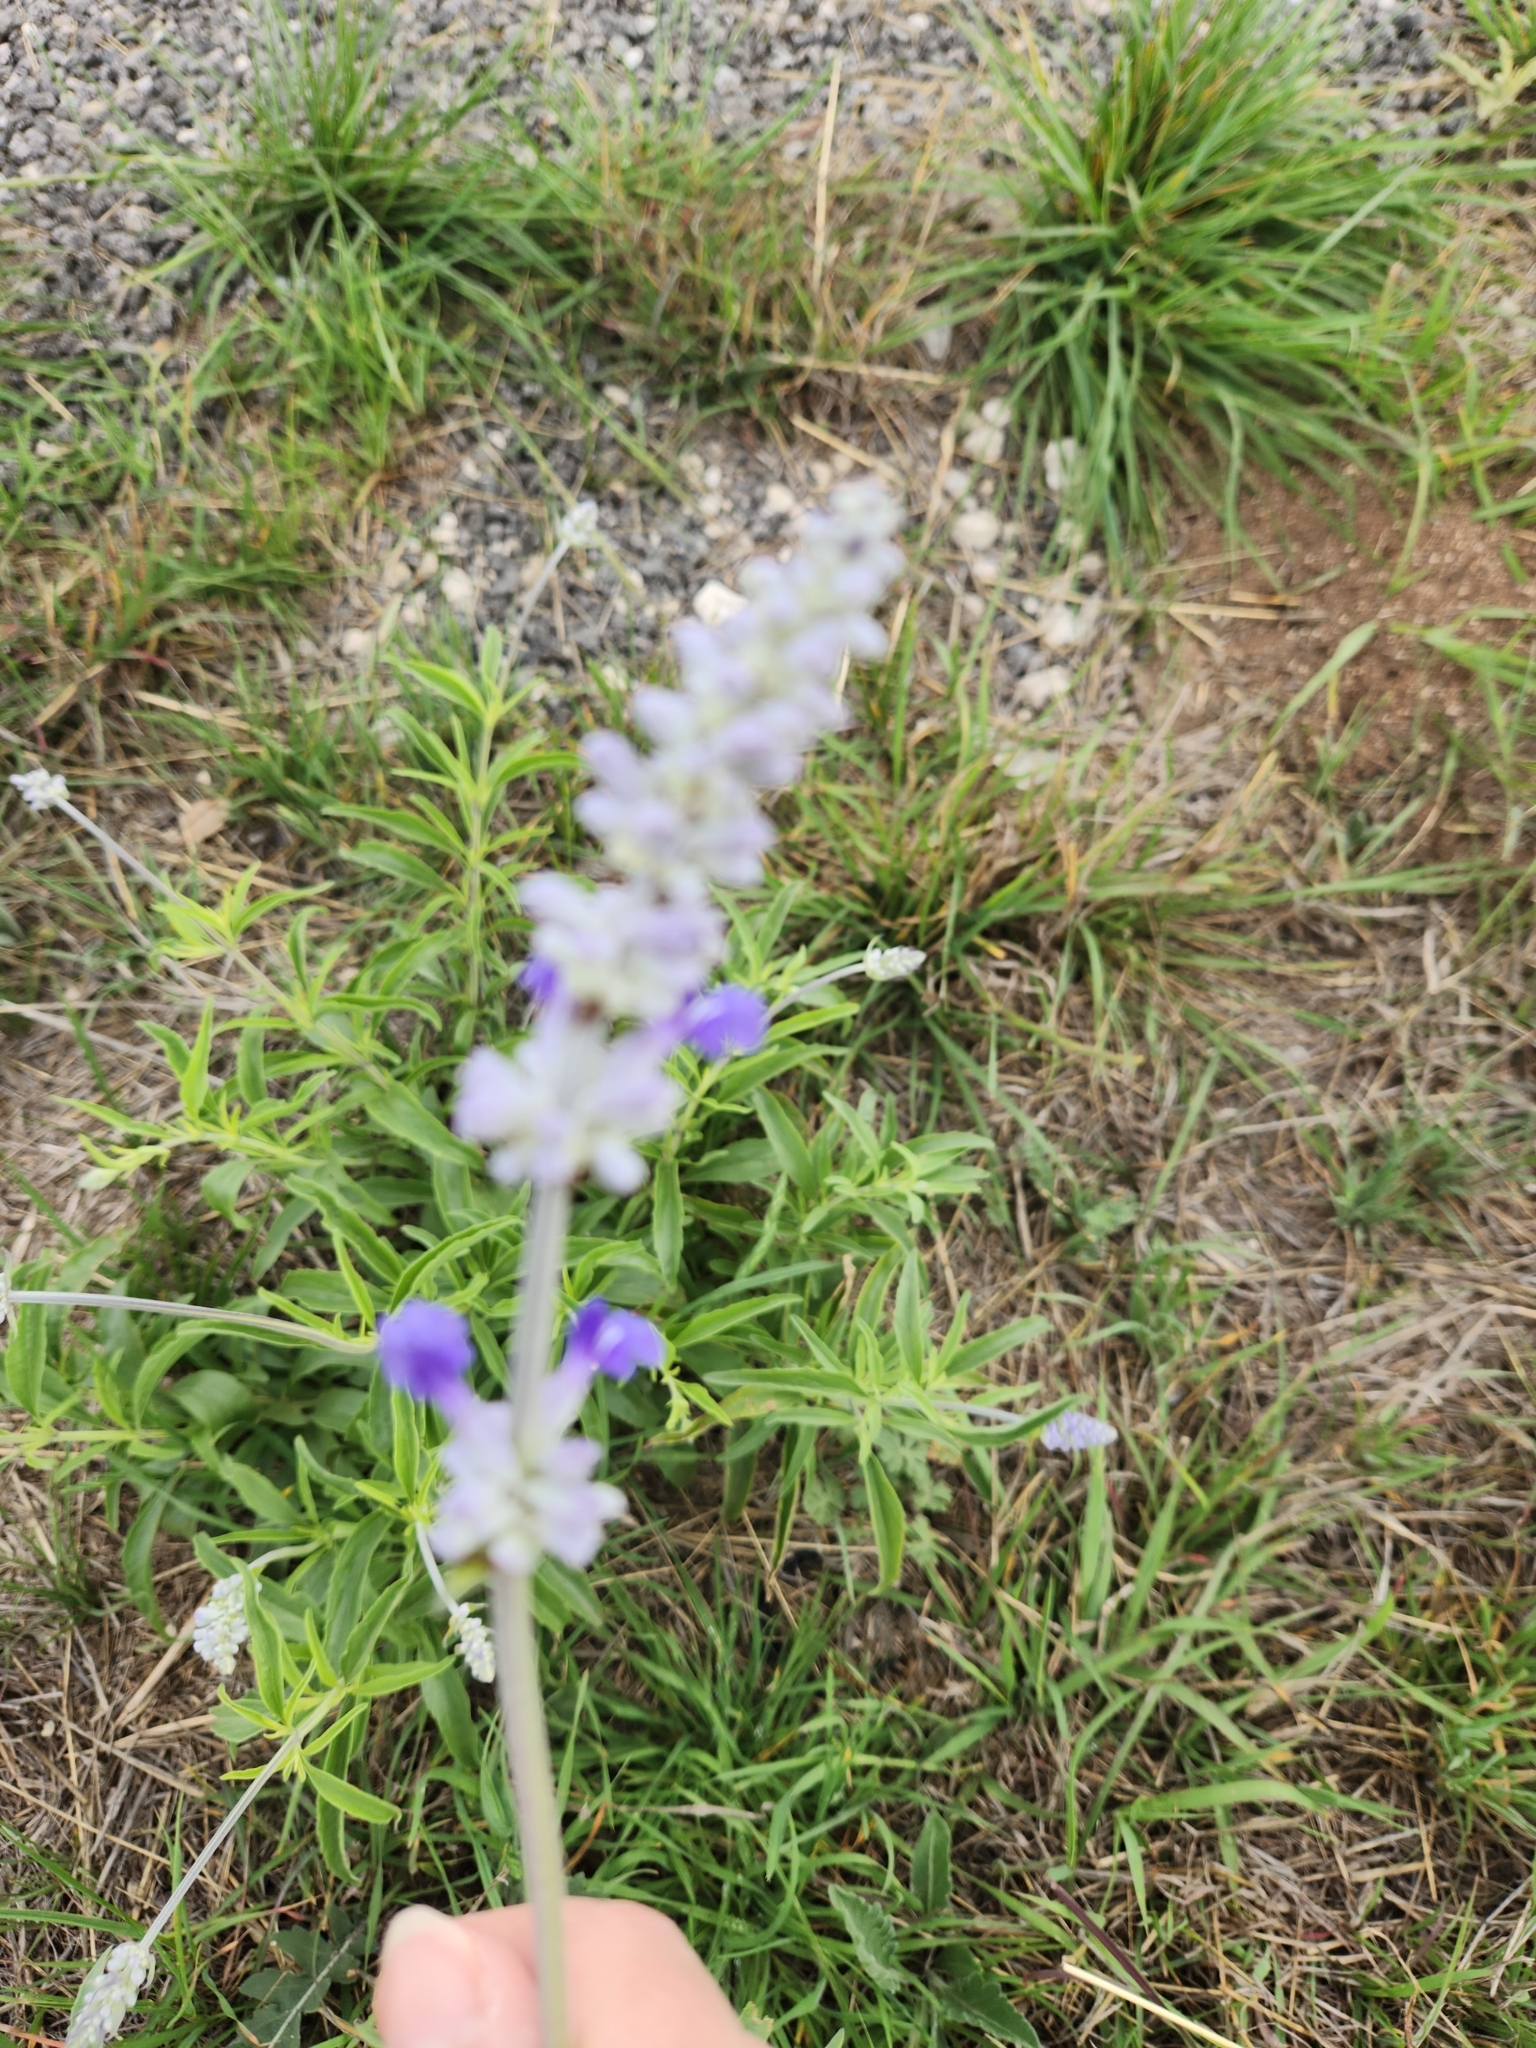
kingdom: Plantae
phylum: Tracheophyta
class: Magnoliopsida
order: Lamiales
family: Lamiaceae
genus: Salvia
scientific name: Salvia farinacea
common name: Mealy sage
